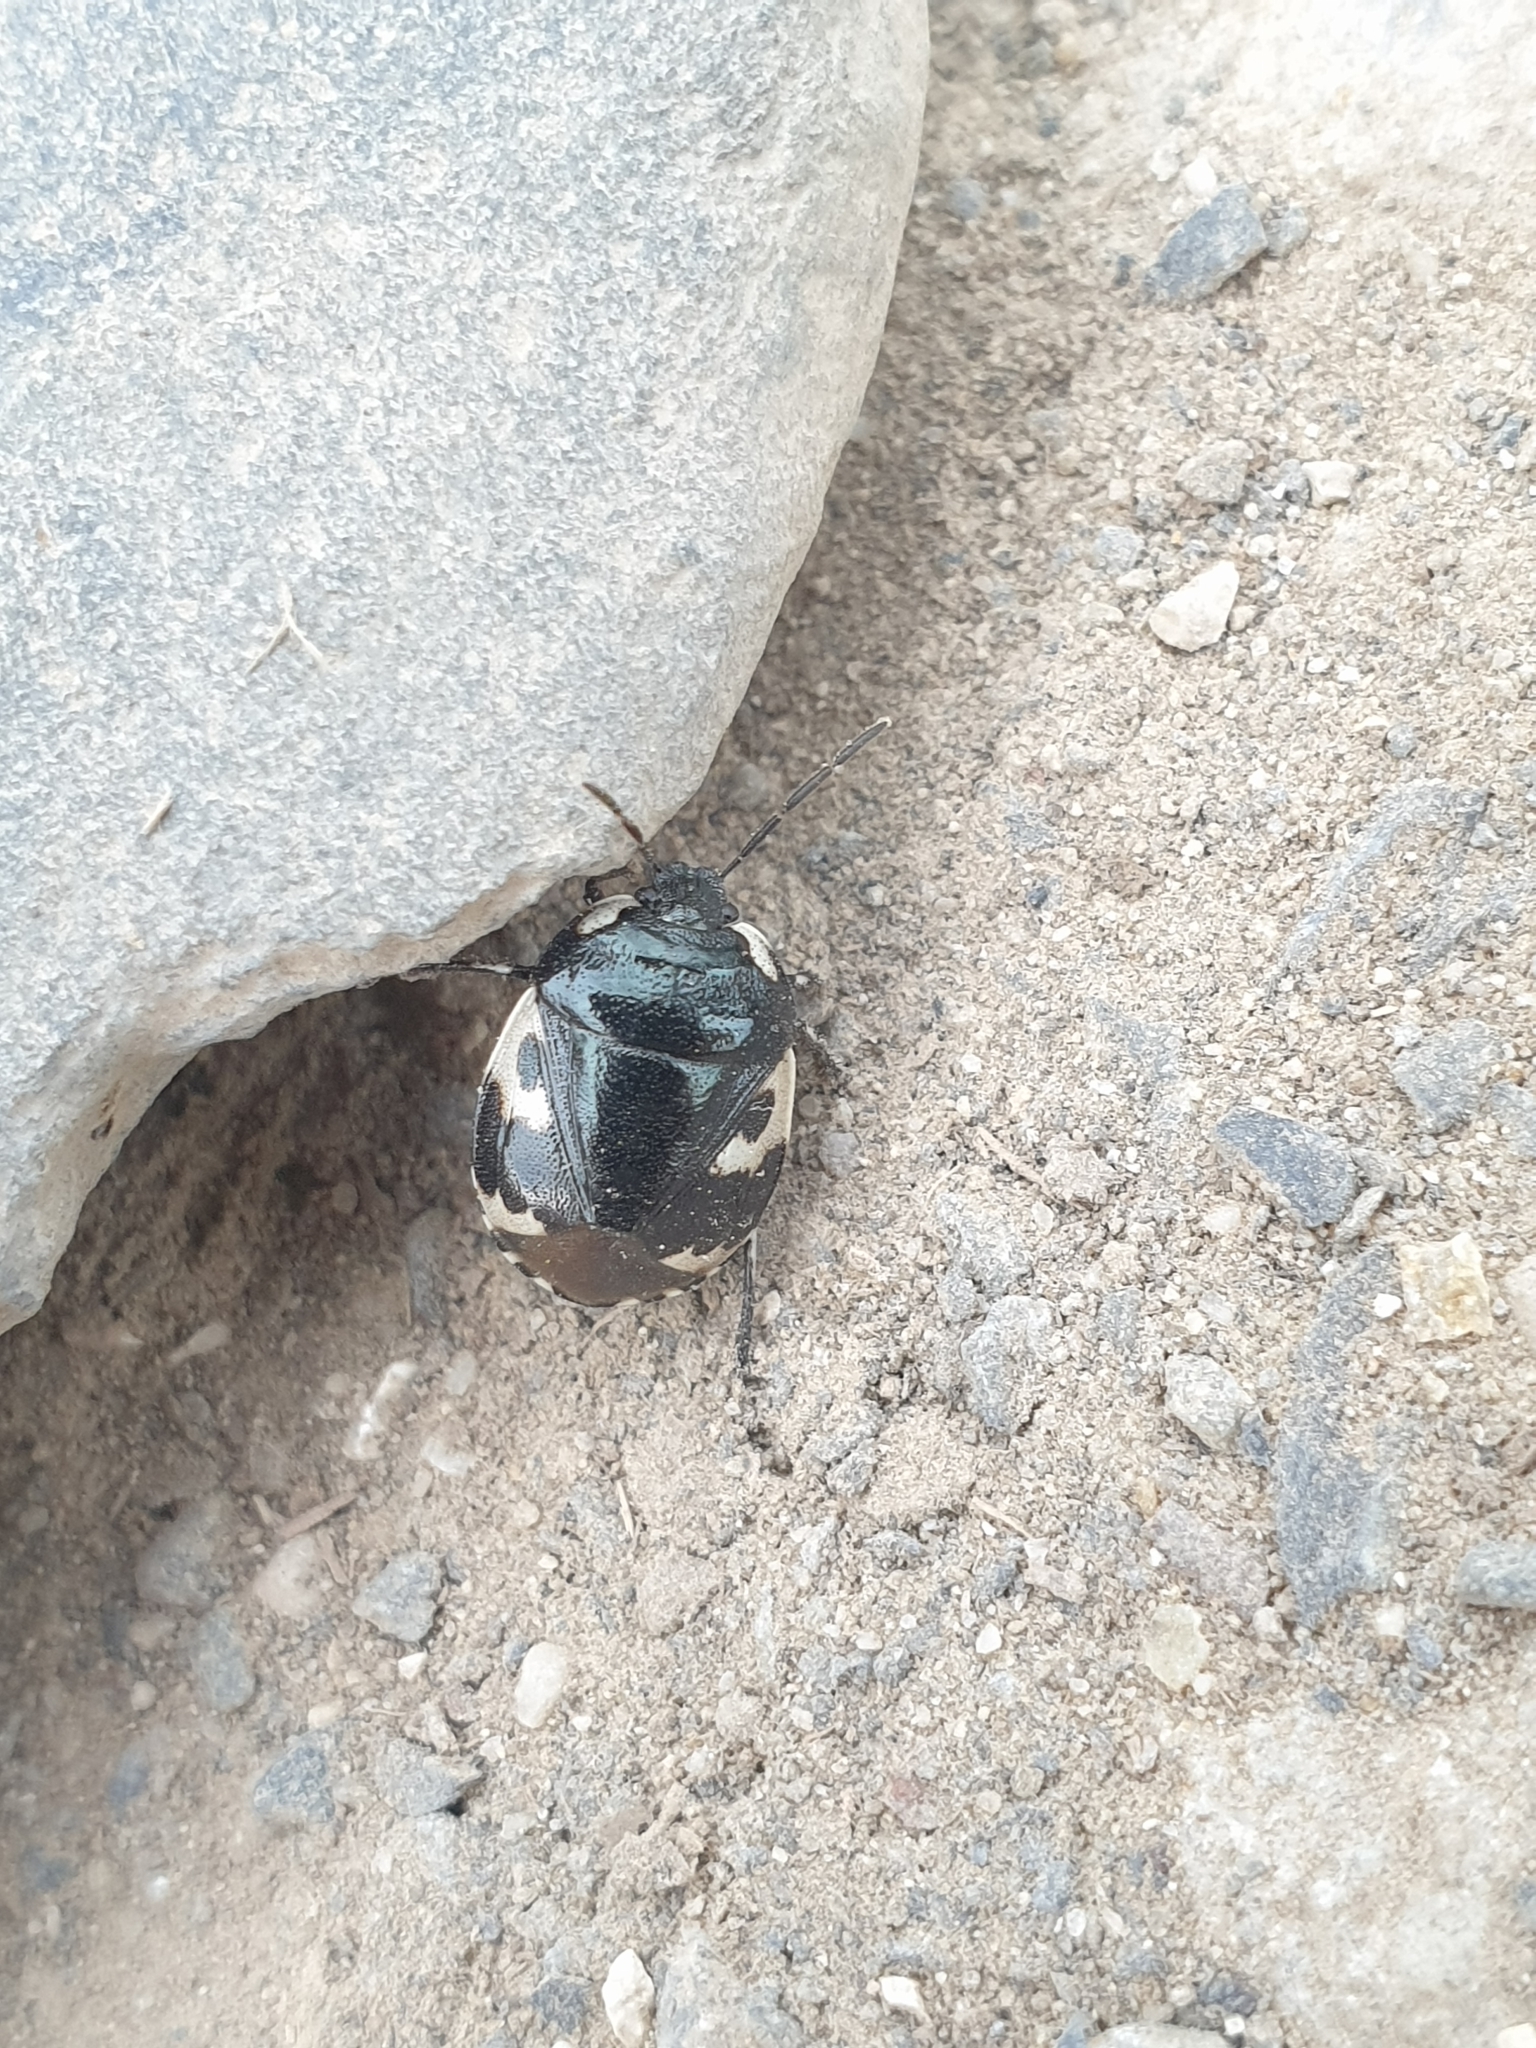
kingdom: Animalia
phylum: Arthropoda
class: Insecta
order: Hemiptera
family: Cydnidae
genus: Tritomegas
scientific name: Tritomegas bicolor
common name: Pied shieldbug
